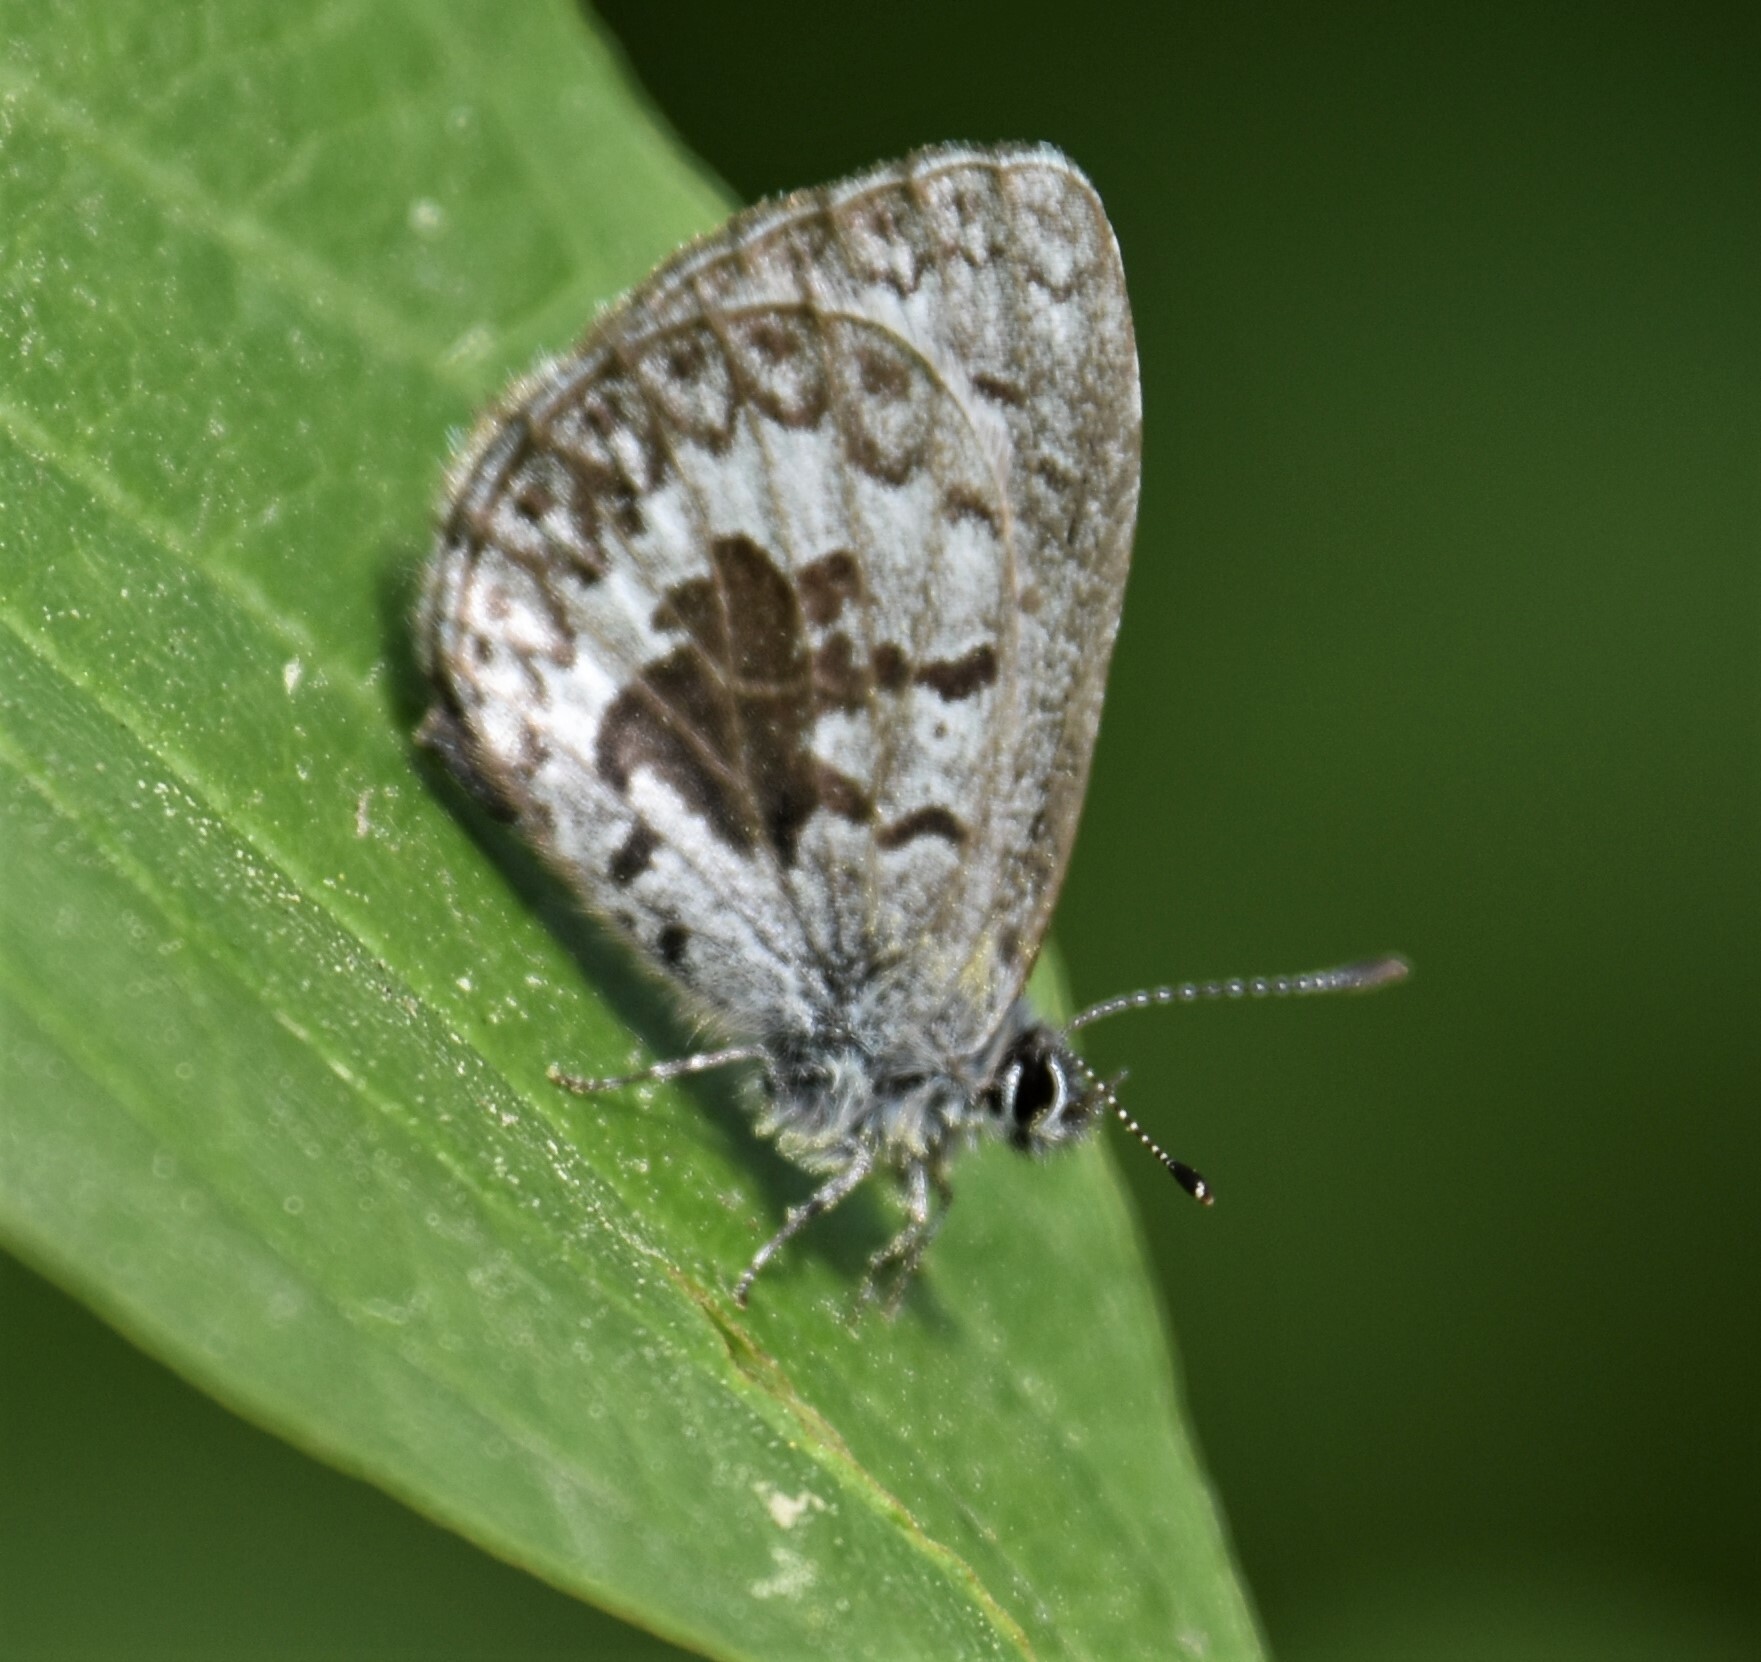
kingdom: Animalia
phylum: Arthropoda
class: Insecta
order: Lepidoptera
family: Lycaenidae
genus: Celastrina
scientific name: Celastrina lucia
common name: Lucia azure
